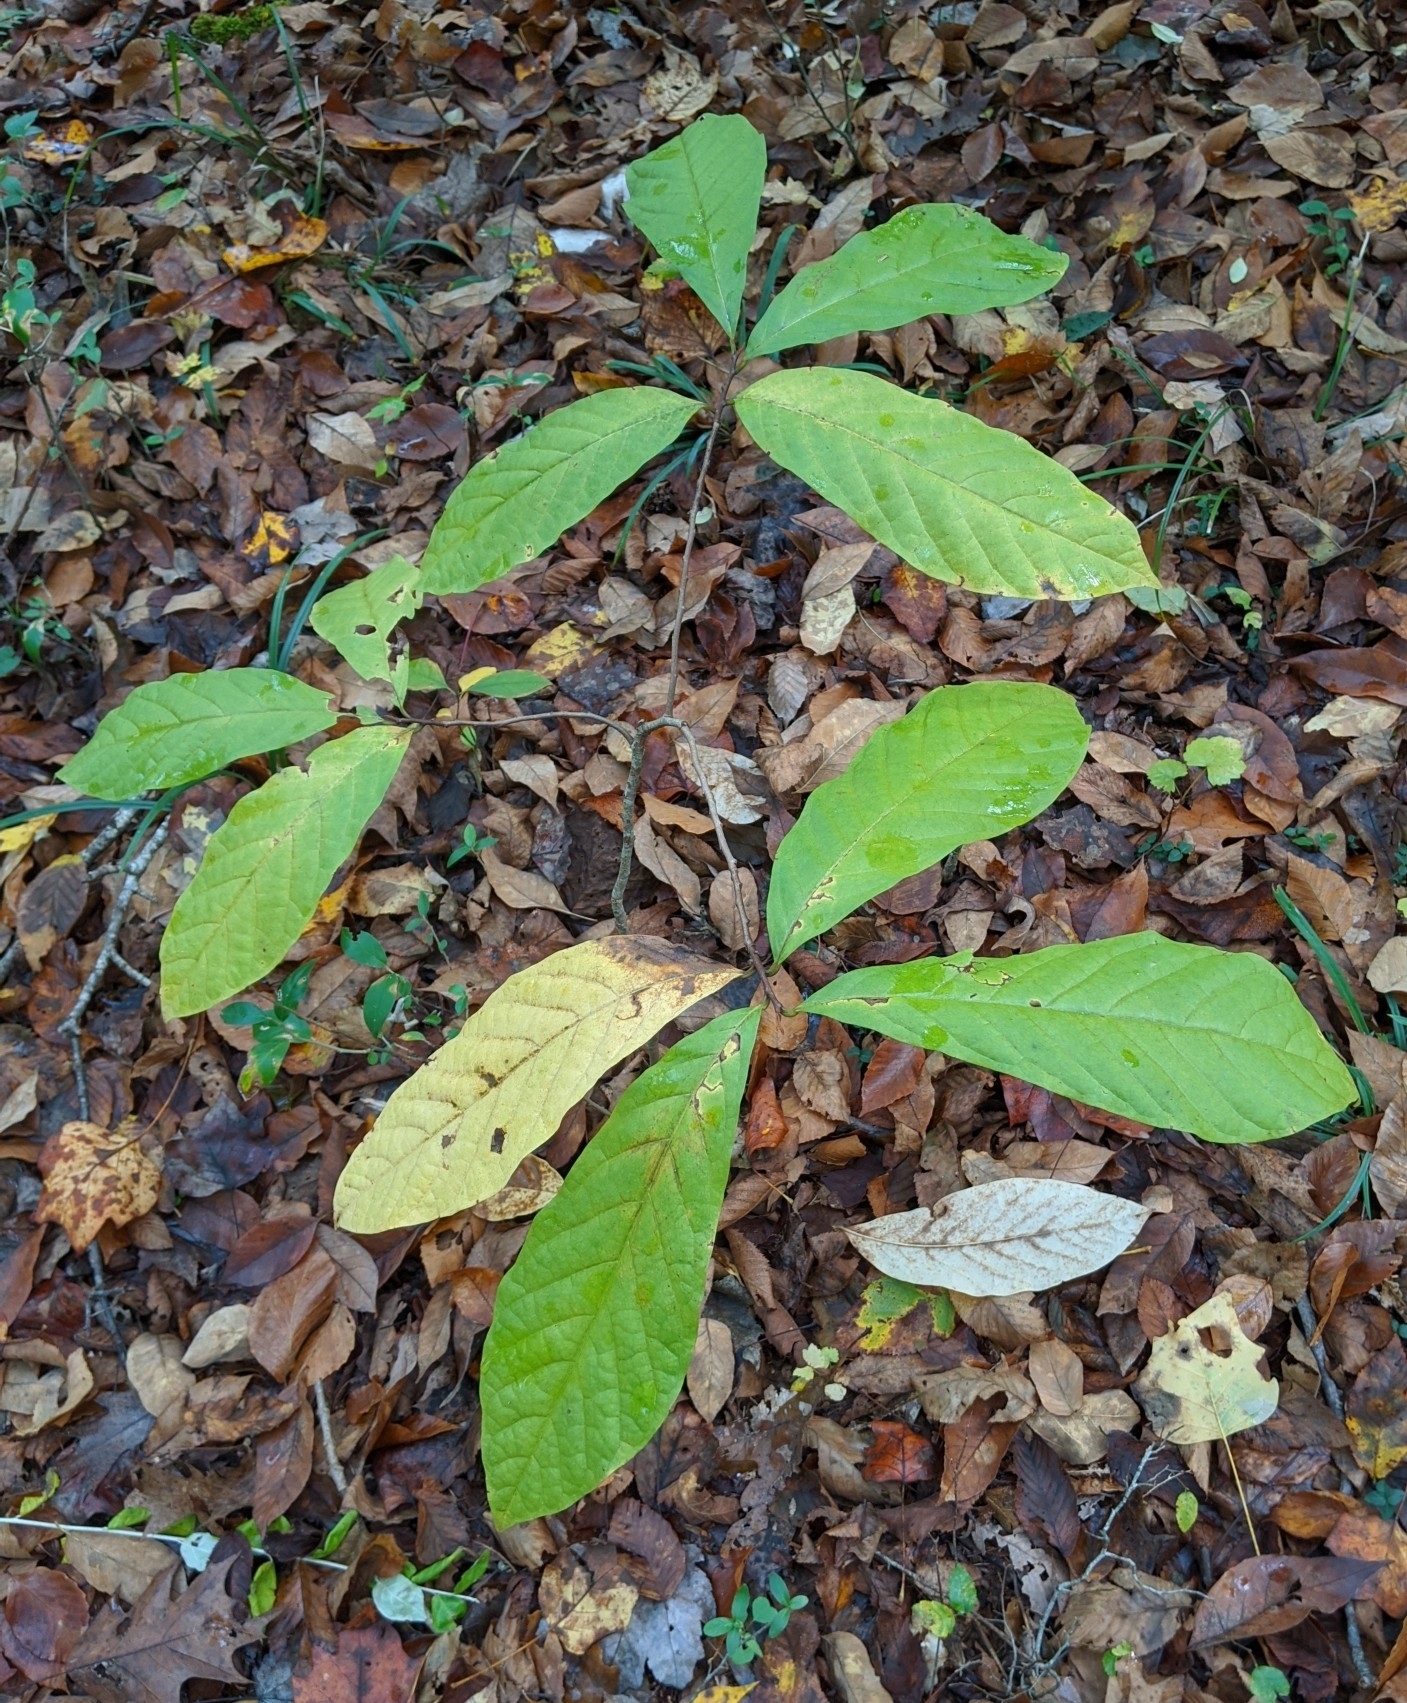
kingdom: Plantae
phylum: Tracheophyta
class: Magnoliopsida
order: Magnoliales
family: Annonaceae
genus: Asimina
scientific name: Asimina triloba
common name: Dog-banana
